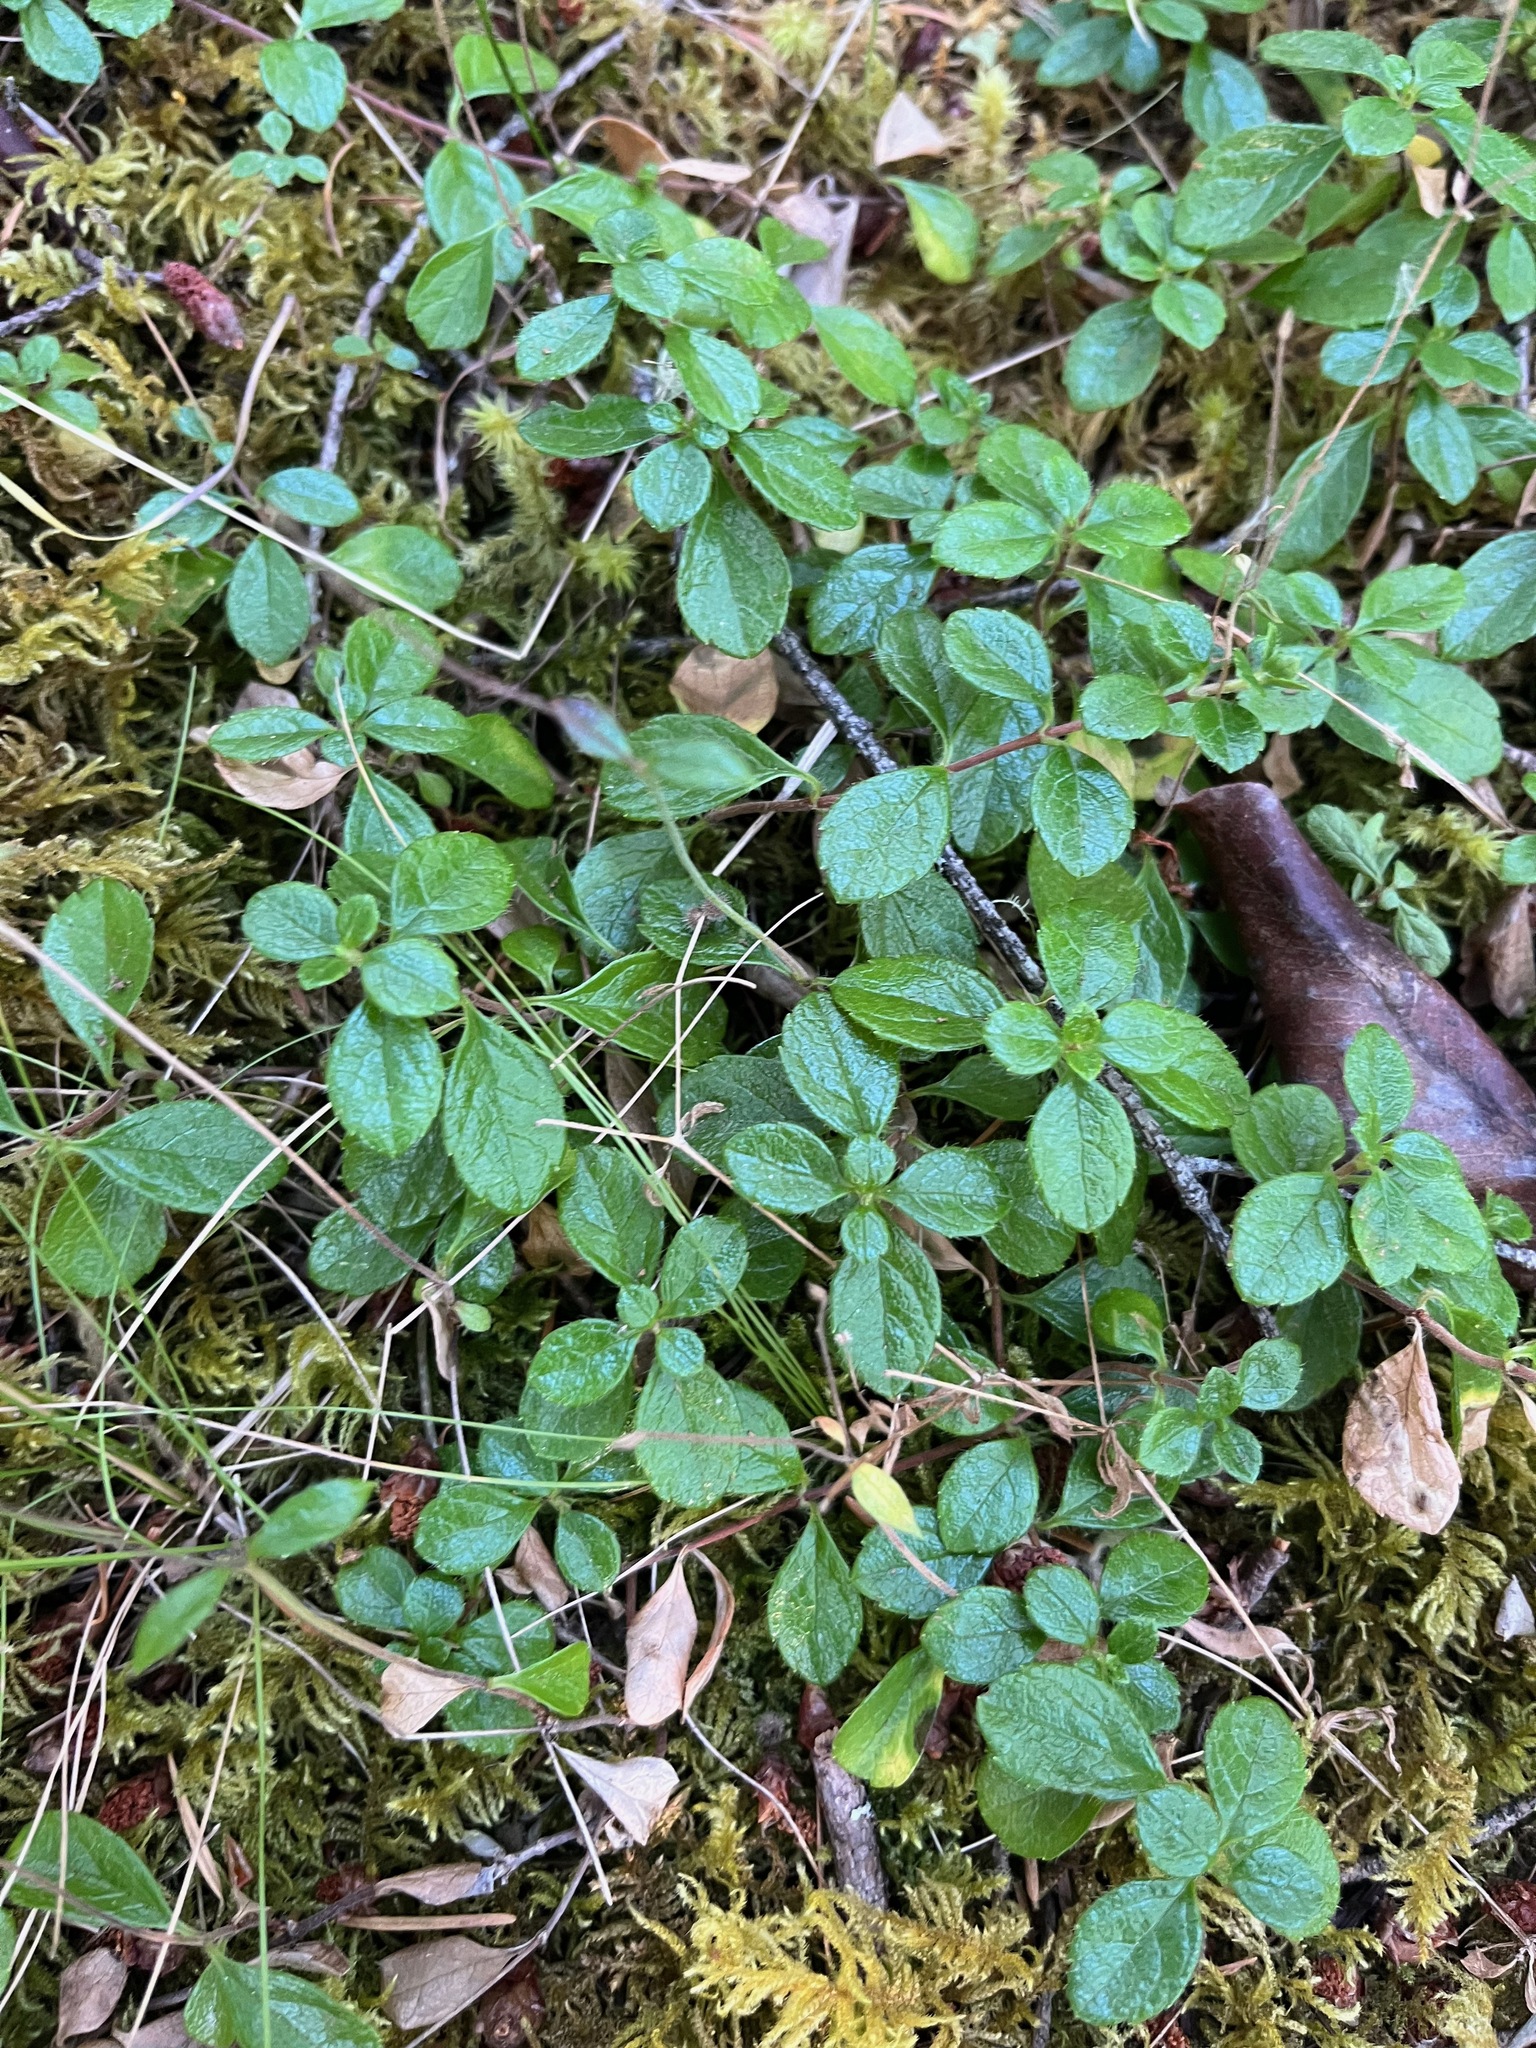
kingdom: Plantae
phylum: Tracheophyta
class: Magnoliopsida
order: Dipsacales
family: Caprifoliaceae
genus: Linnaea
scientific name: Linnaea borealis
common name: Twinflower
